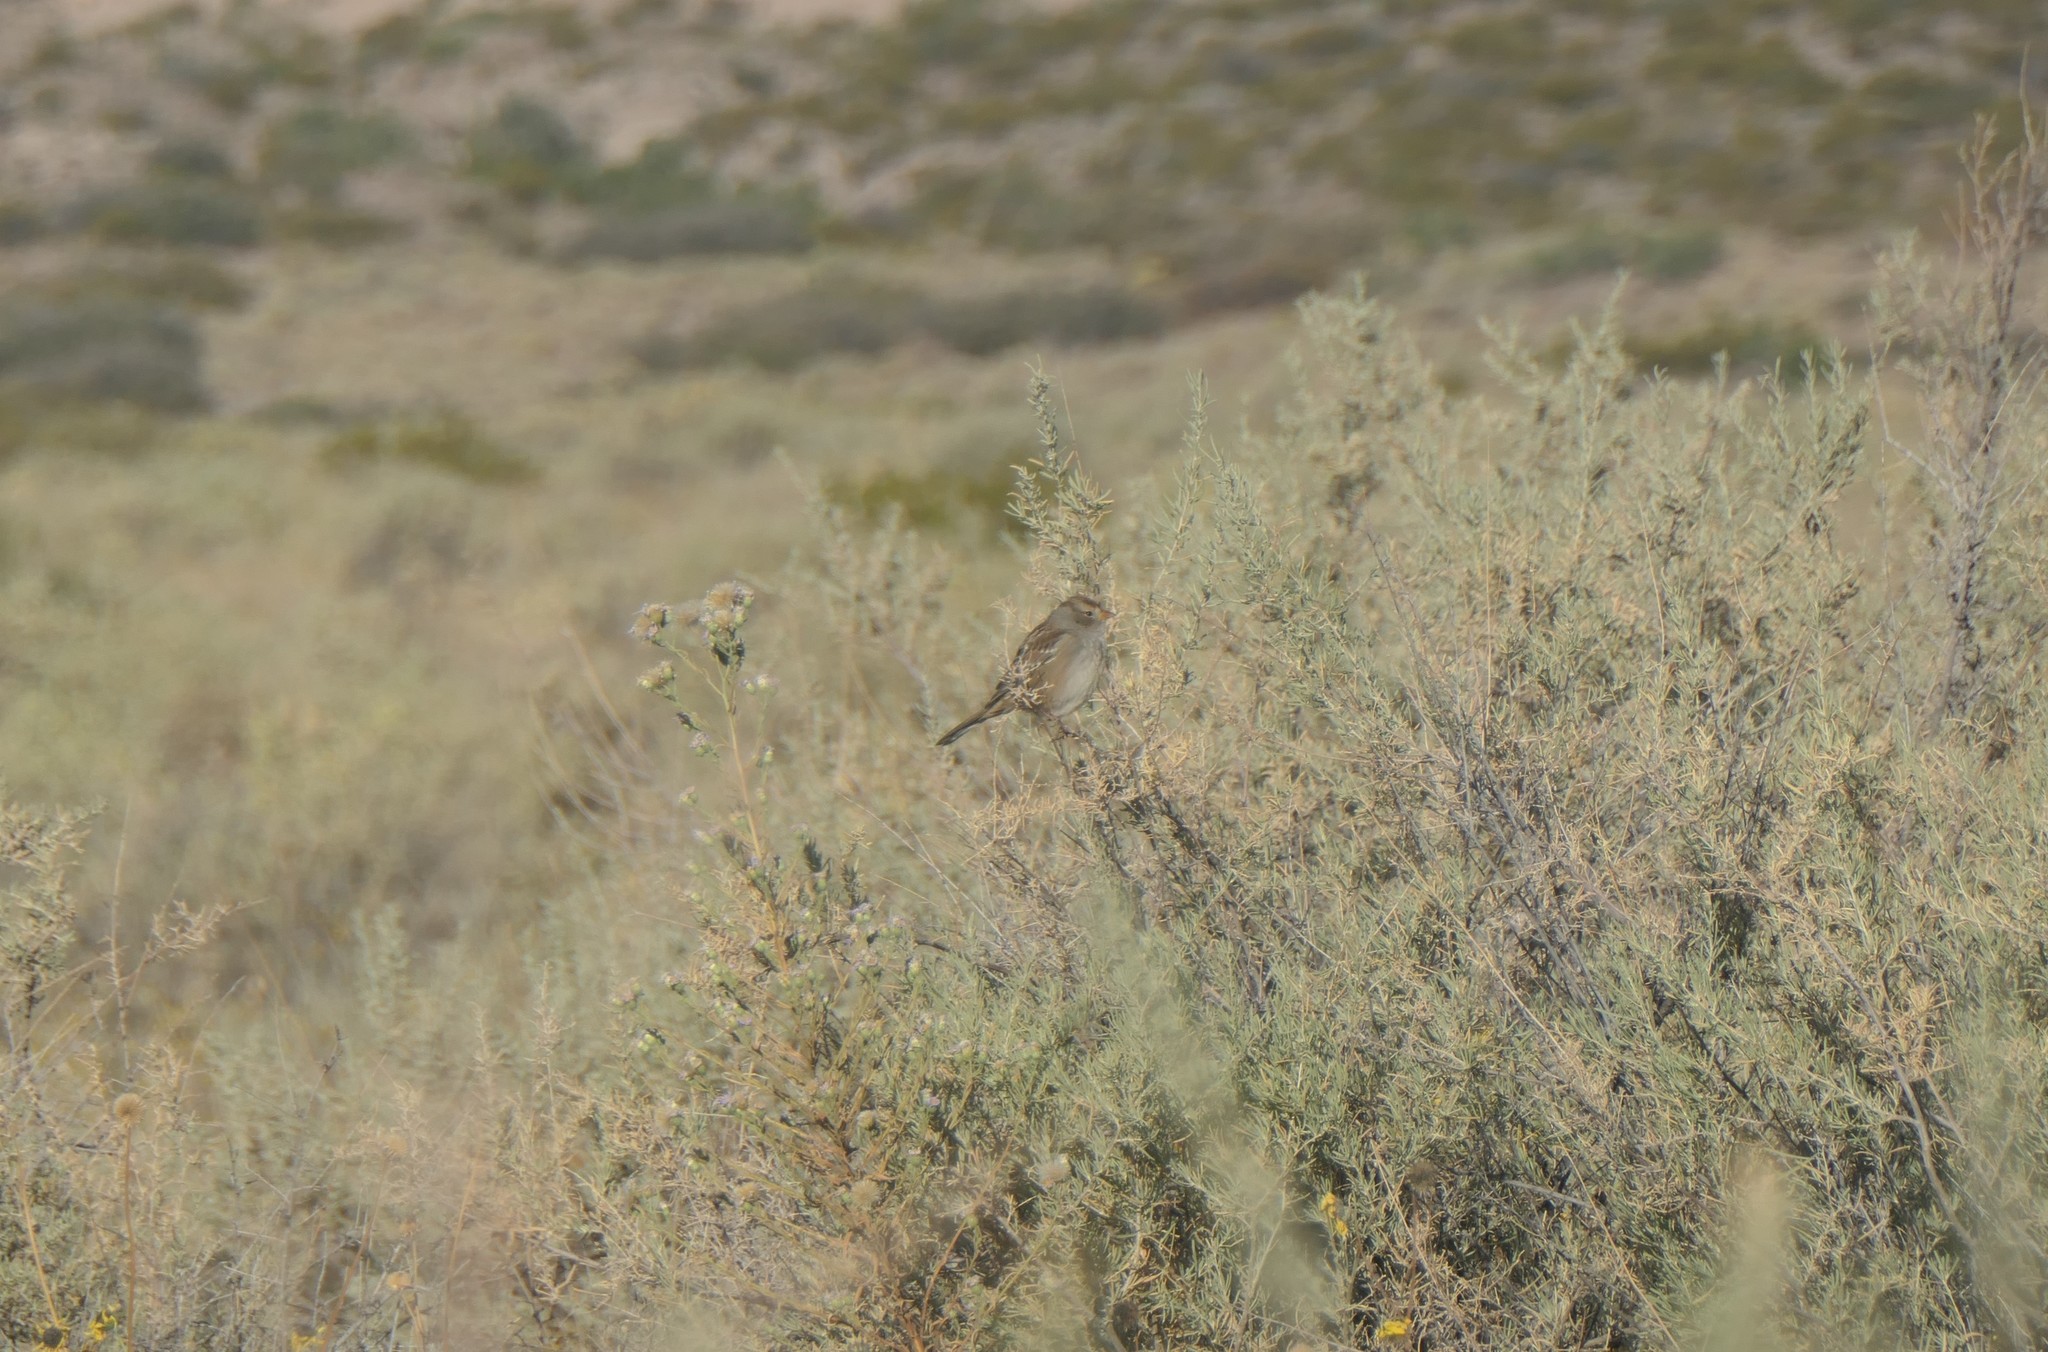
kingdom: Animalia
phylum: Chordata
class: Aves
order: Passeriformes
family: Passerellidae
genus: Zonotrichia
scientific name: Zonotrichia leucophrys
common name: White-crowned sparrow
